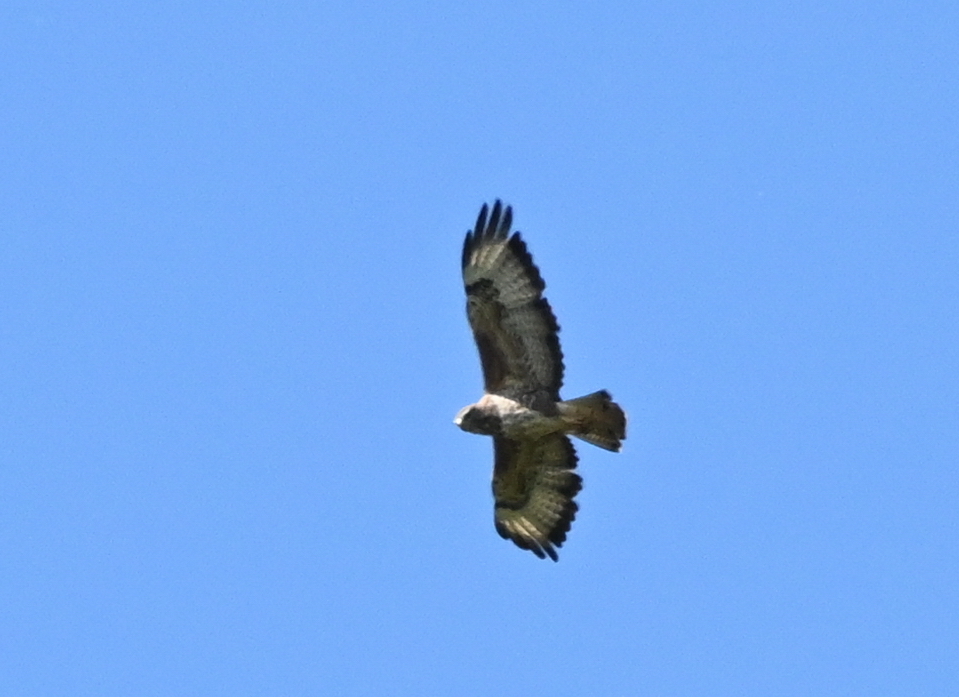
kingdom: Animalia
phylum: Chordata
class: Aves
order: Accipitriformes
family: Accipitridae
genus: Buteo
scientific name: Buteo buteo
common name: Common buzzard
